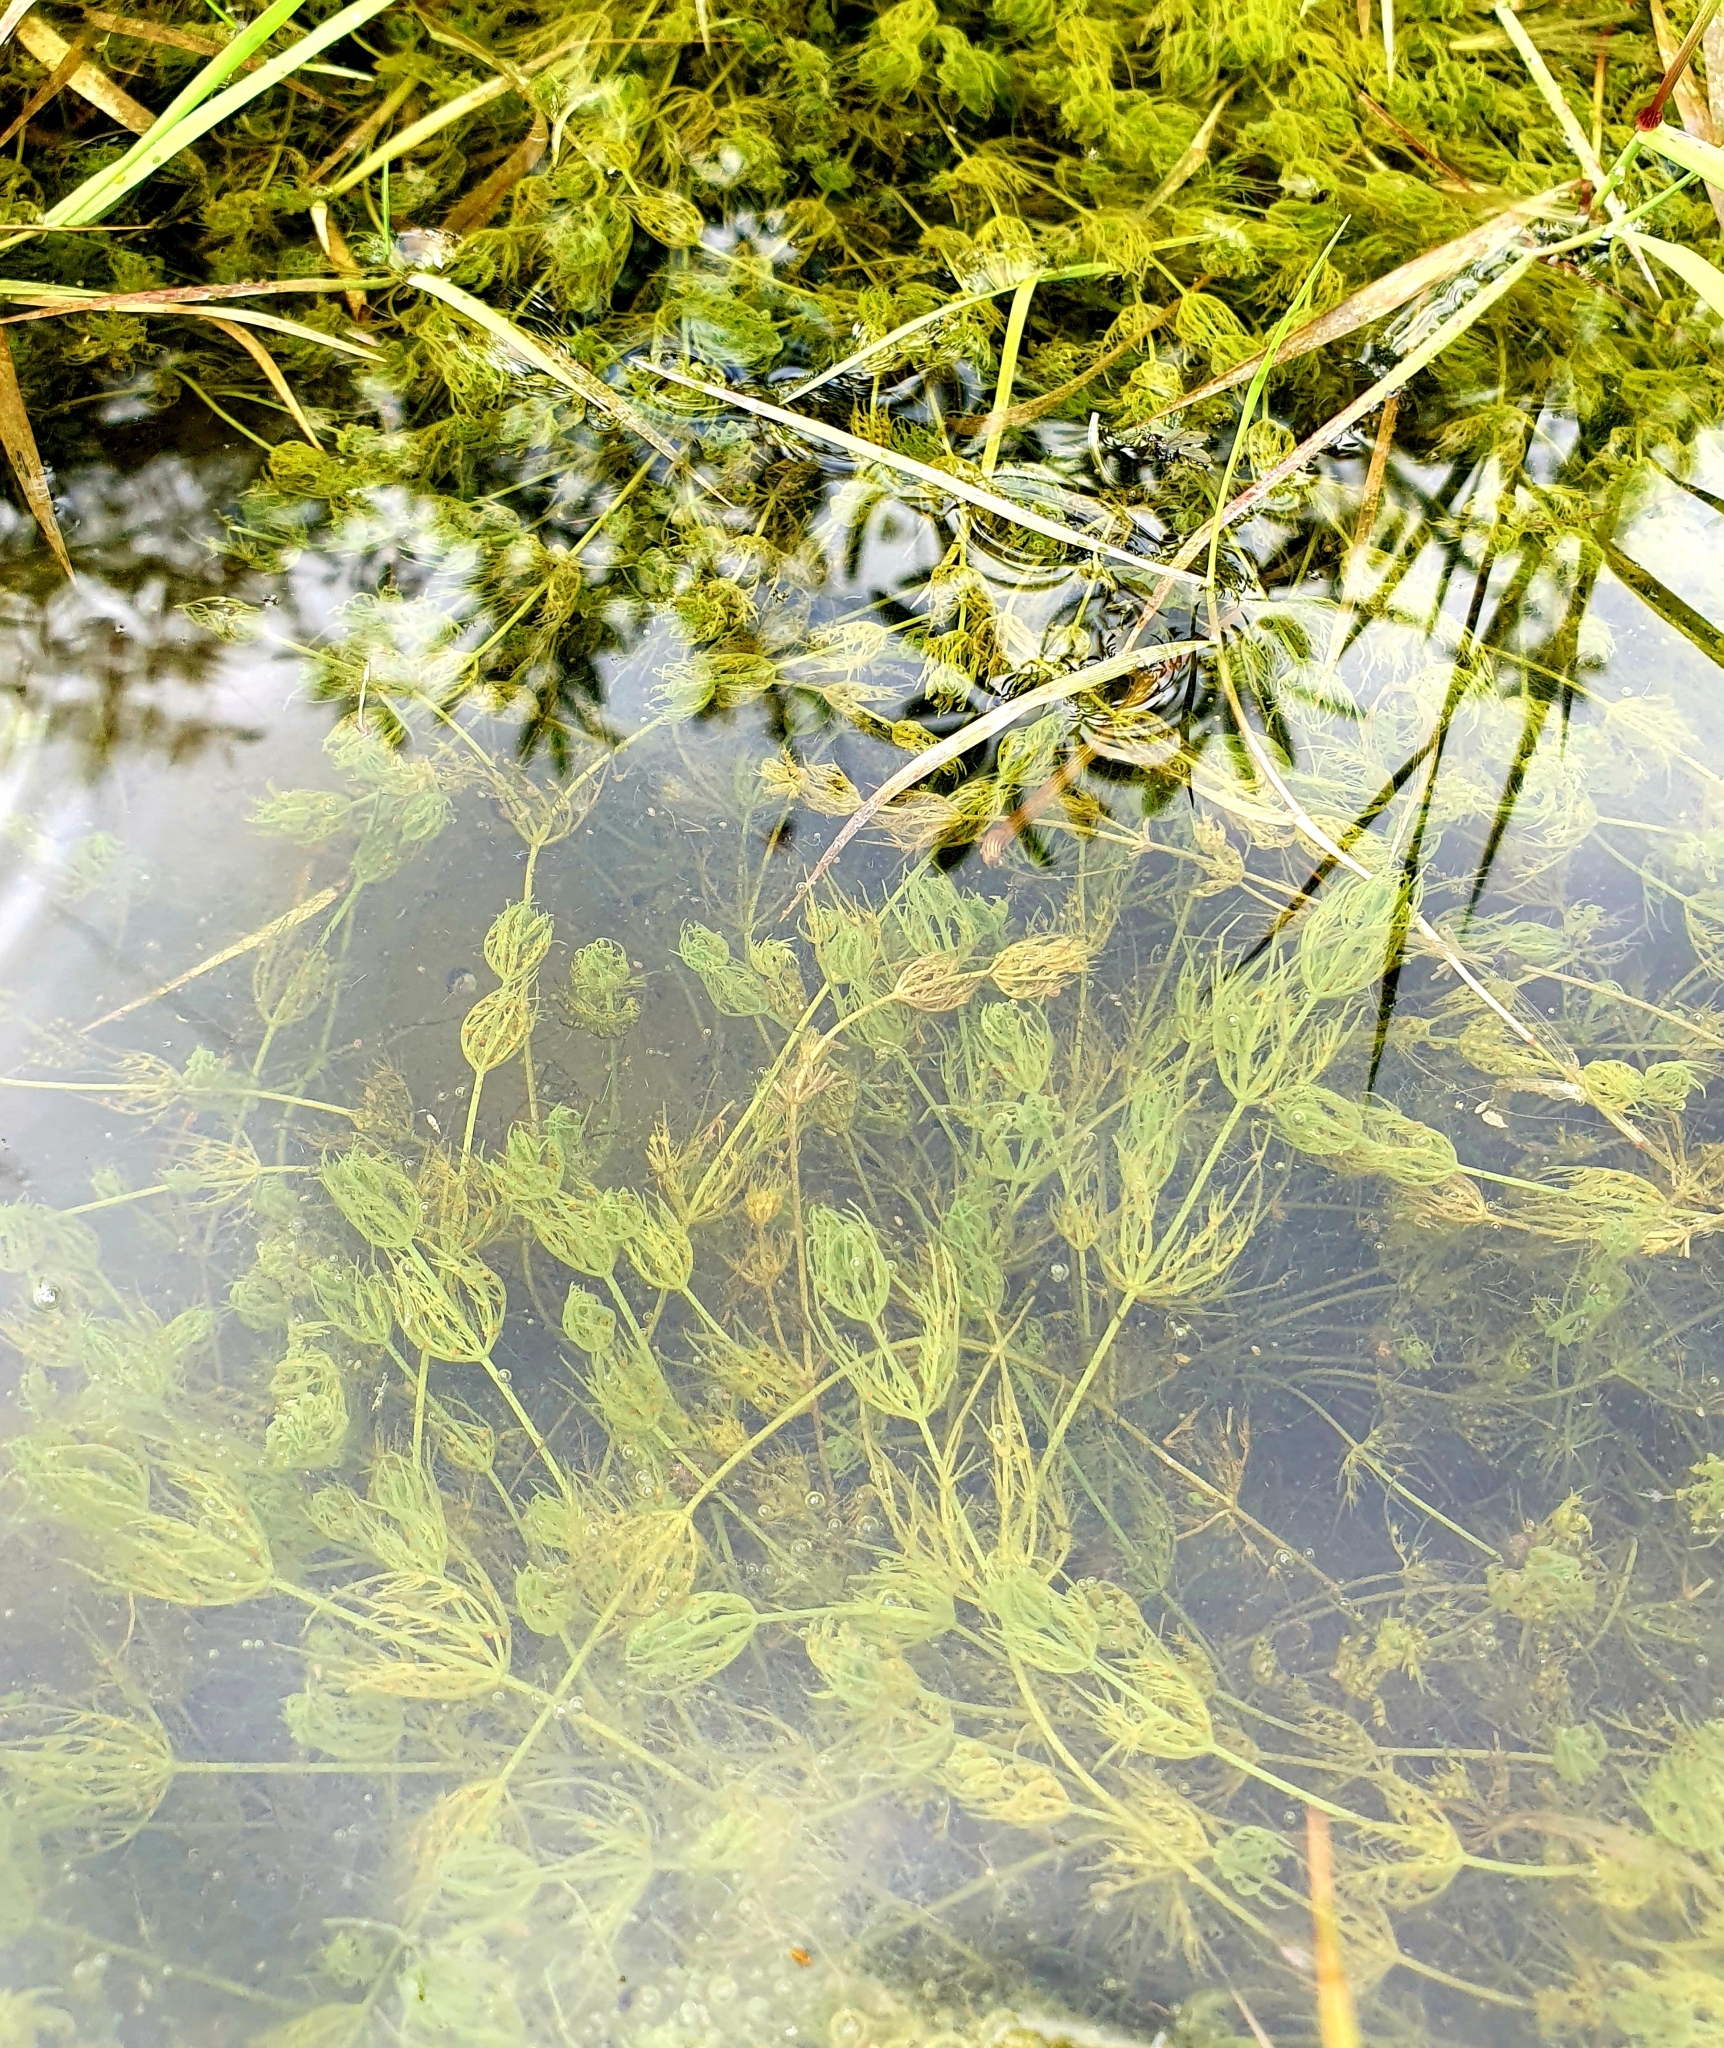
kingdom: Plantae
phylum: Charophyta
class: Charophyceae
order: Charales
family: Characeae
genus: Chara
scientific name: Chara vulgaris
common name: Common stonewort
